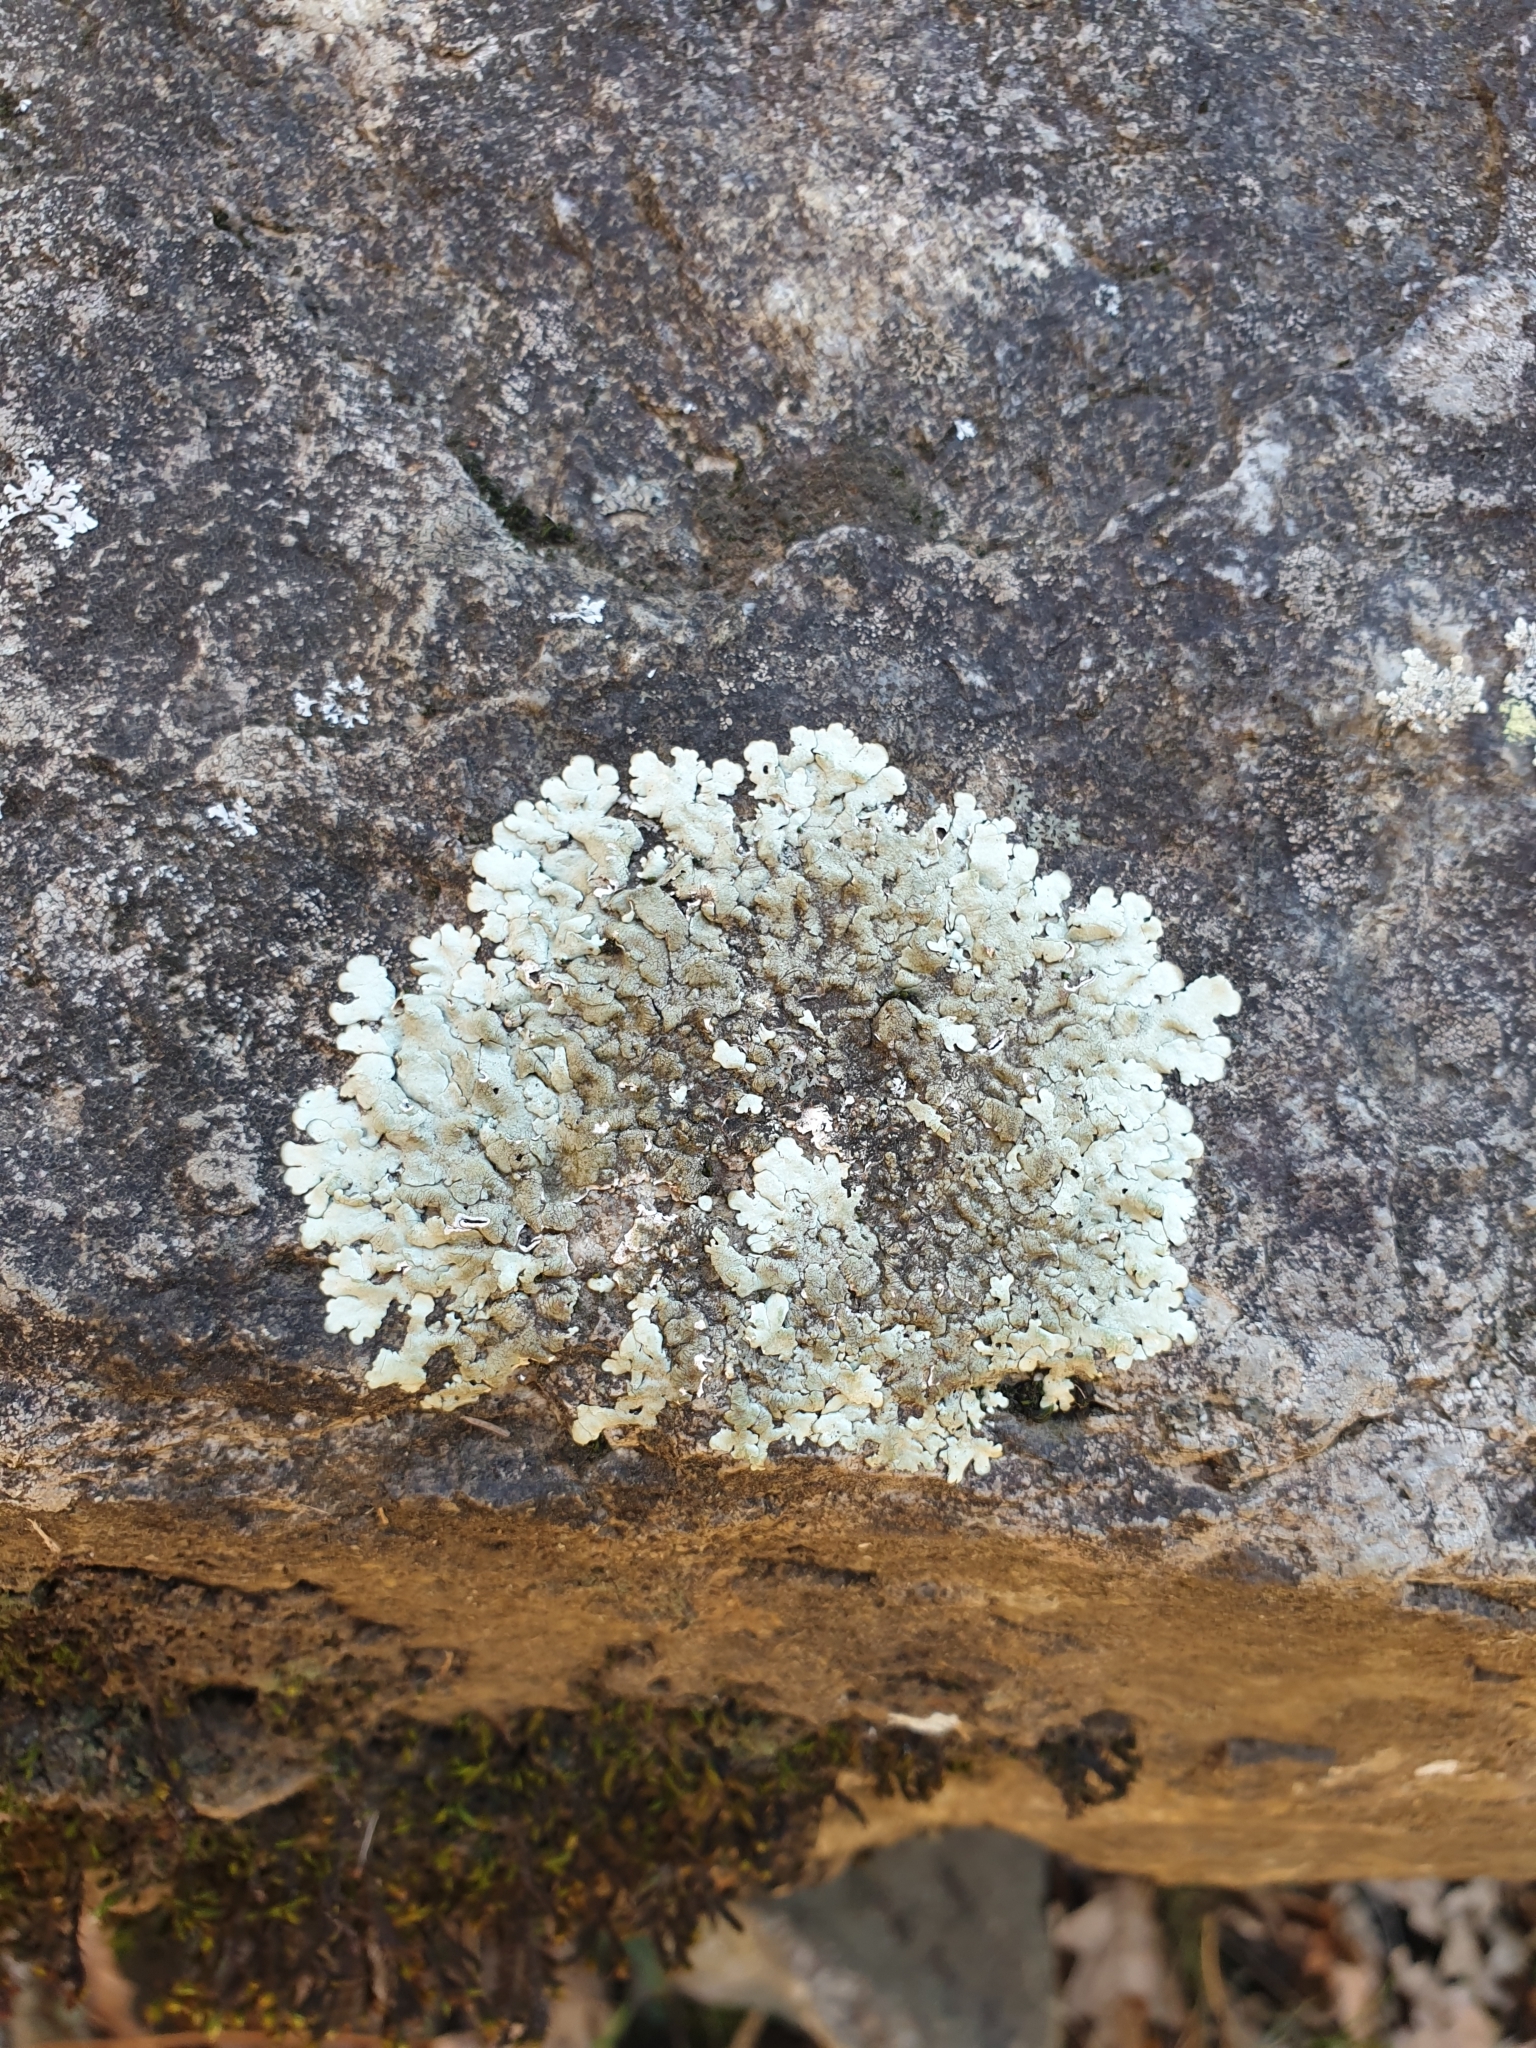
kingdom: Fungi
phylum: Ascomycota
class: Lecanoromycetes
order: Lecanorales
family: Parmeliaceae
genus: Xanthoparmelia
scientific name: Xanthoparmelia
